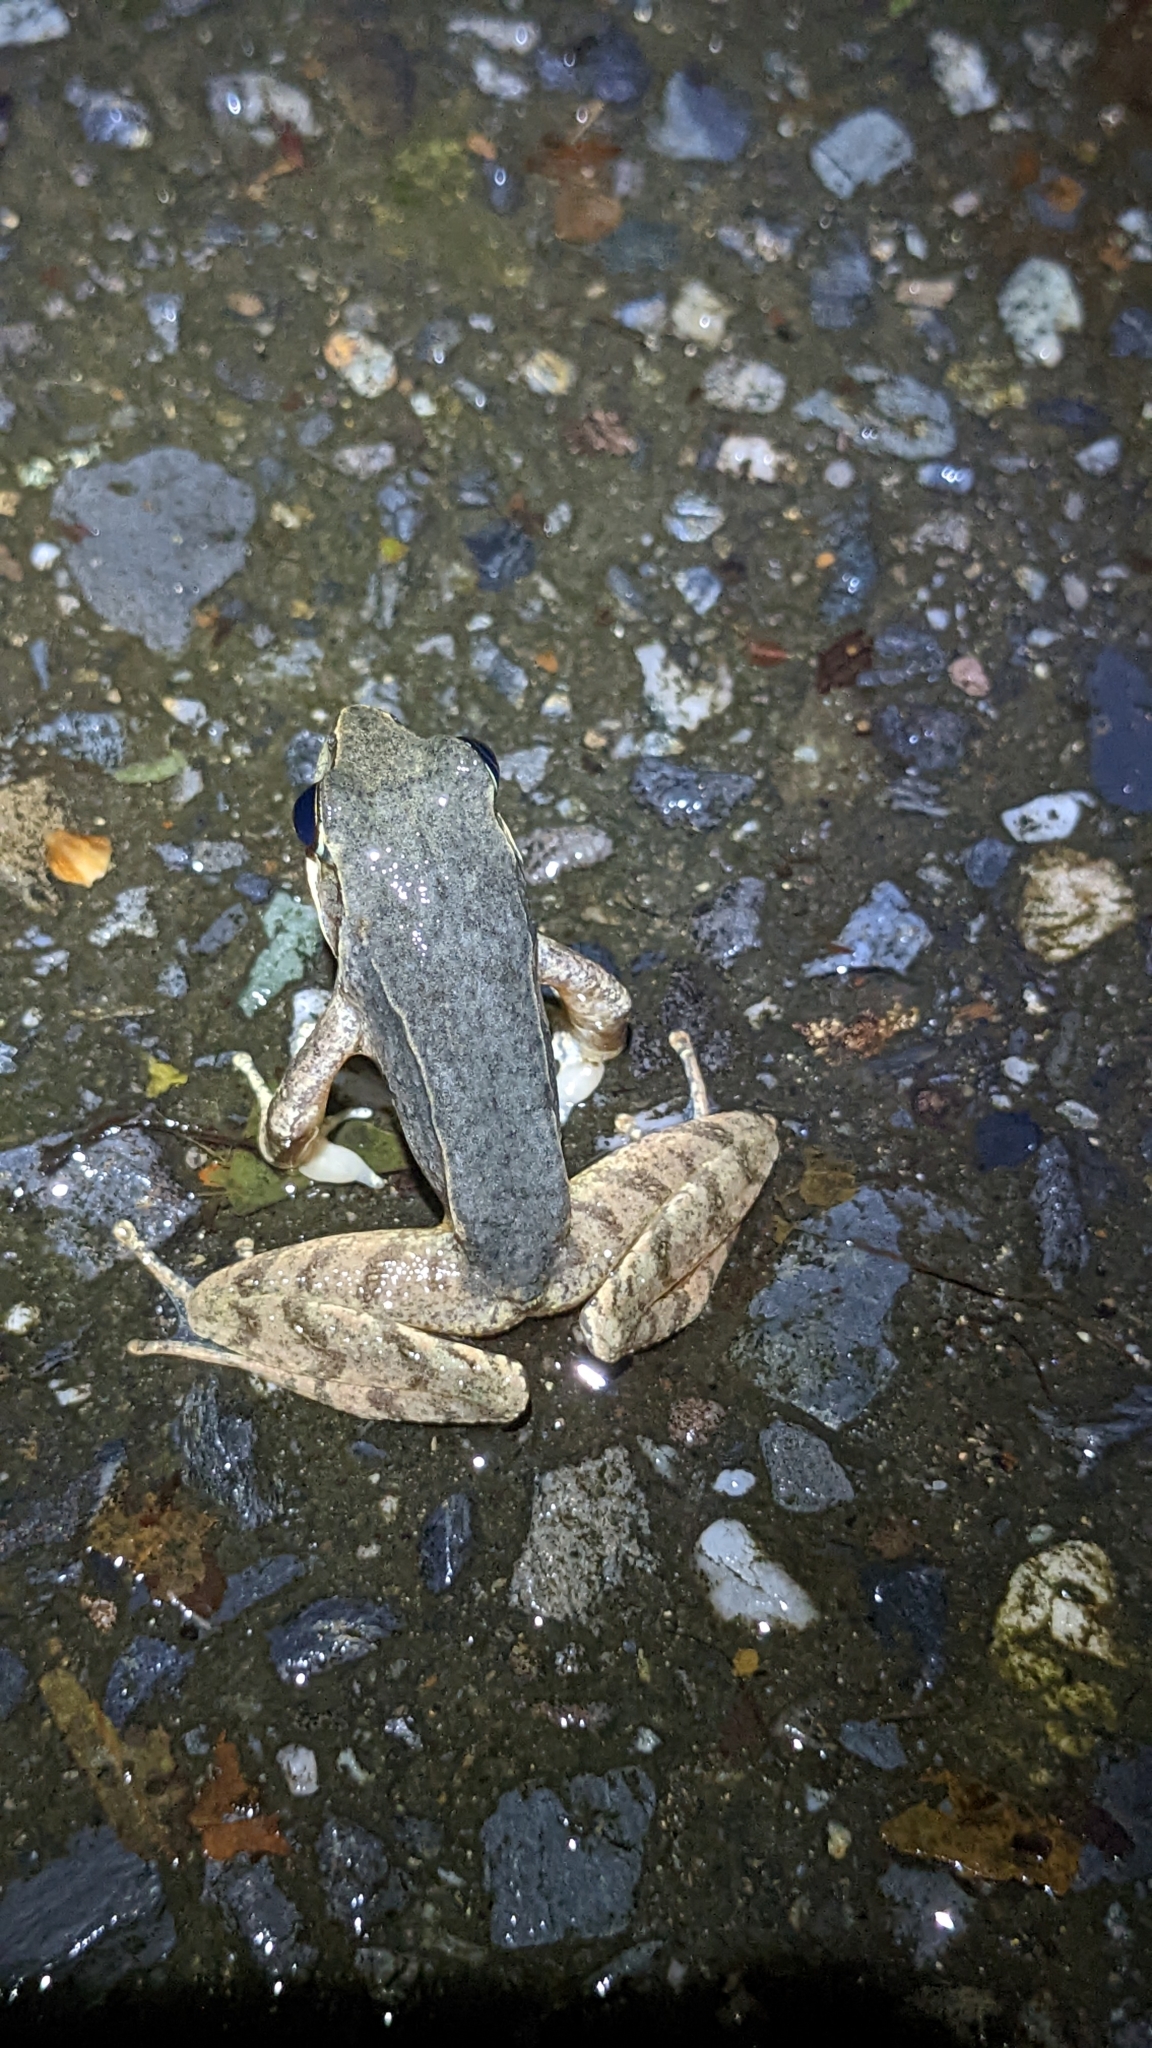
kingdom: Animalia
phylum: Chordata
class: Amphibia
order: Anura
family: Ranidae
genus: Rana
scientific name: Rana sauteri
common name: Kanshirei village frog
